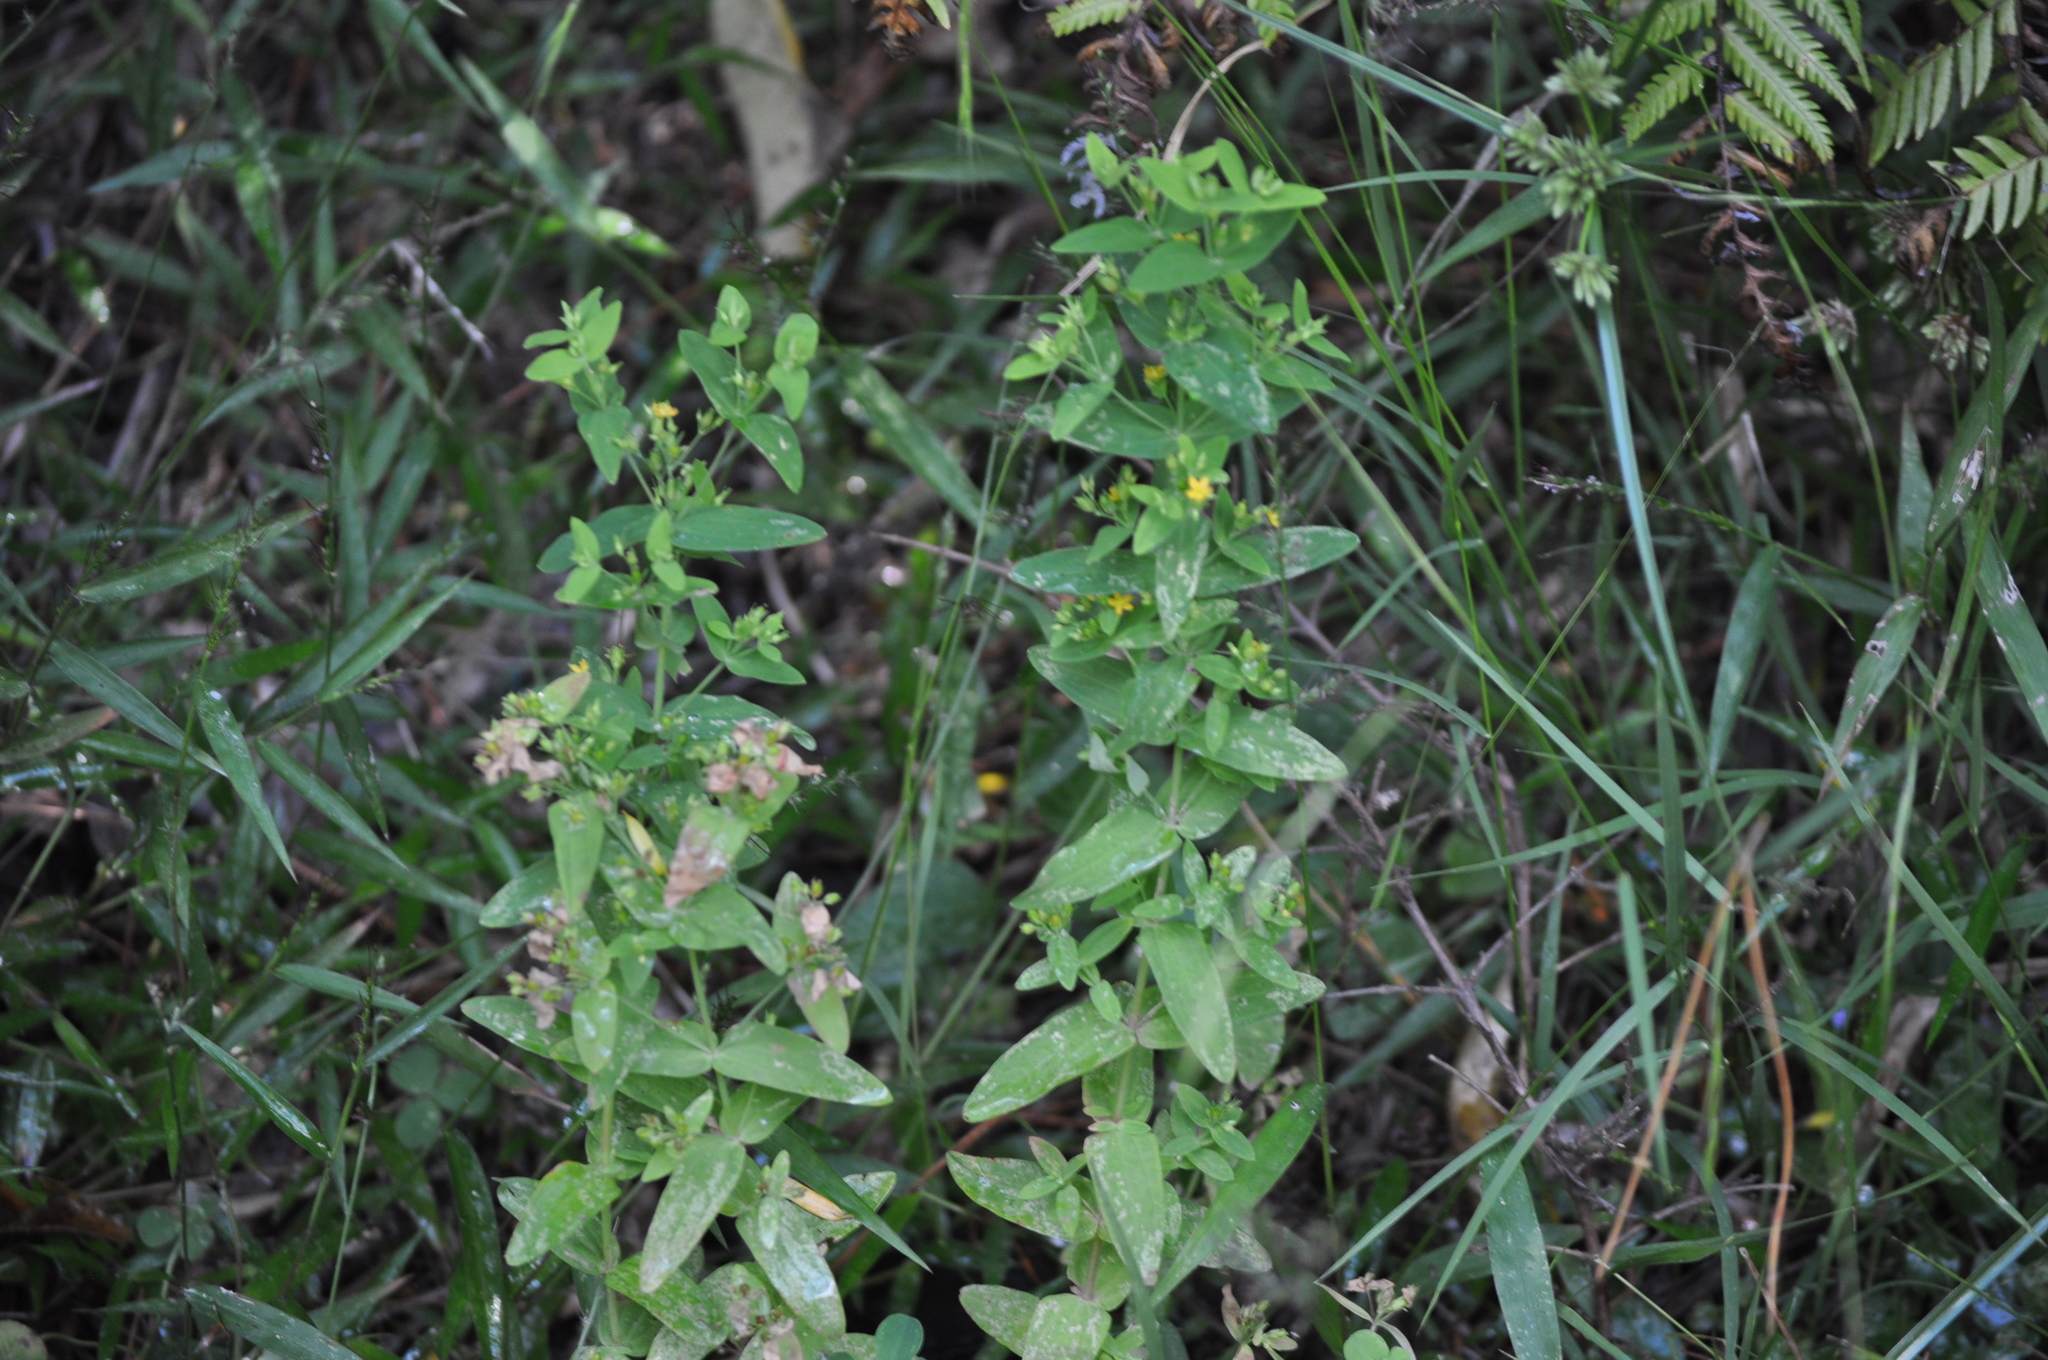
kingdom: Plantae
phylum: Tracheophyta
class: Magnoliopsida
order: Malpighiales
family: Hypericaceae
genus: Hypericum
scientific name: Hypericum mutilum
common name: Dwarf st. john's-wort
